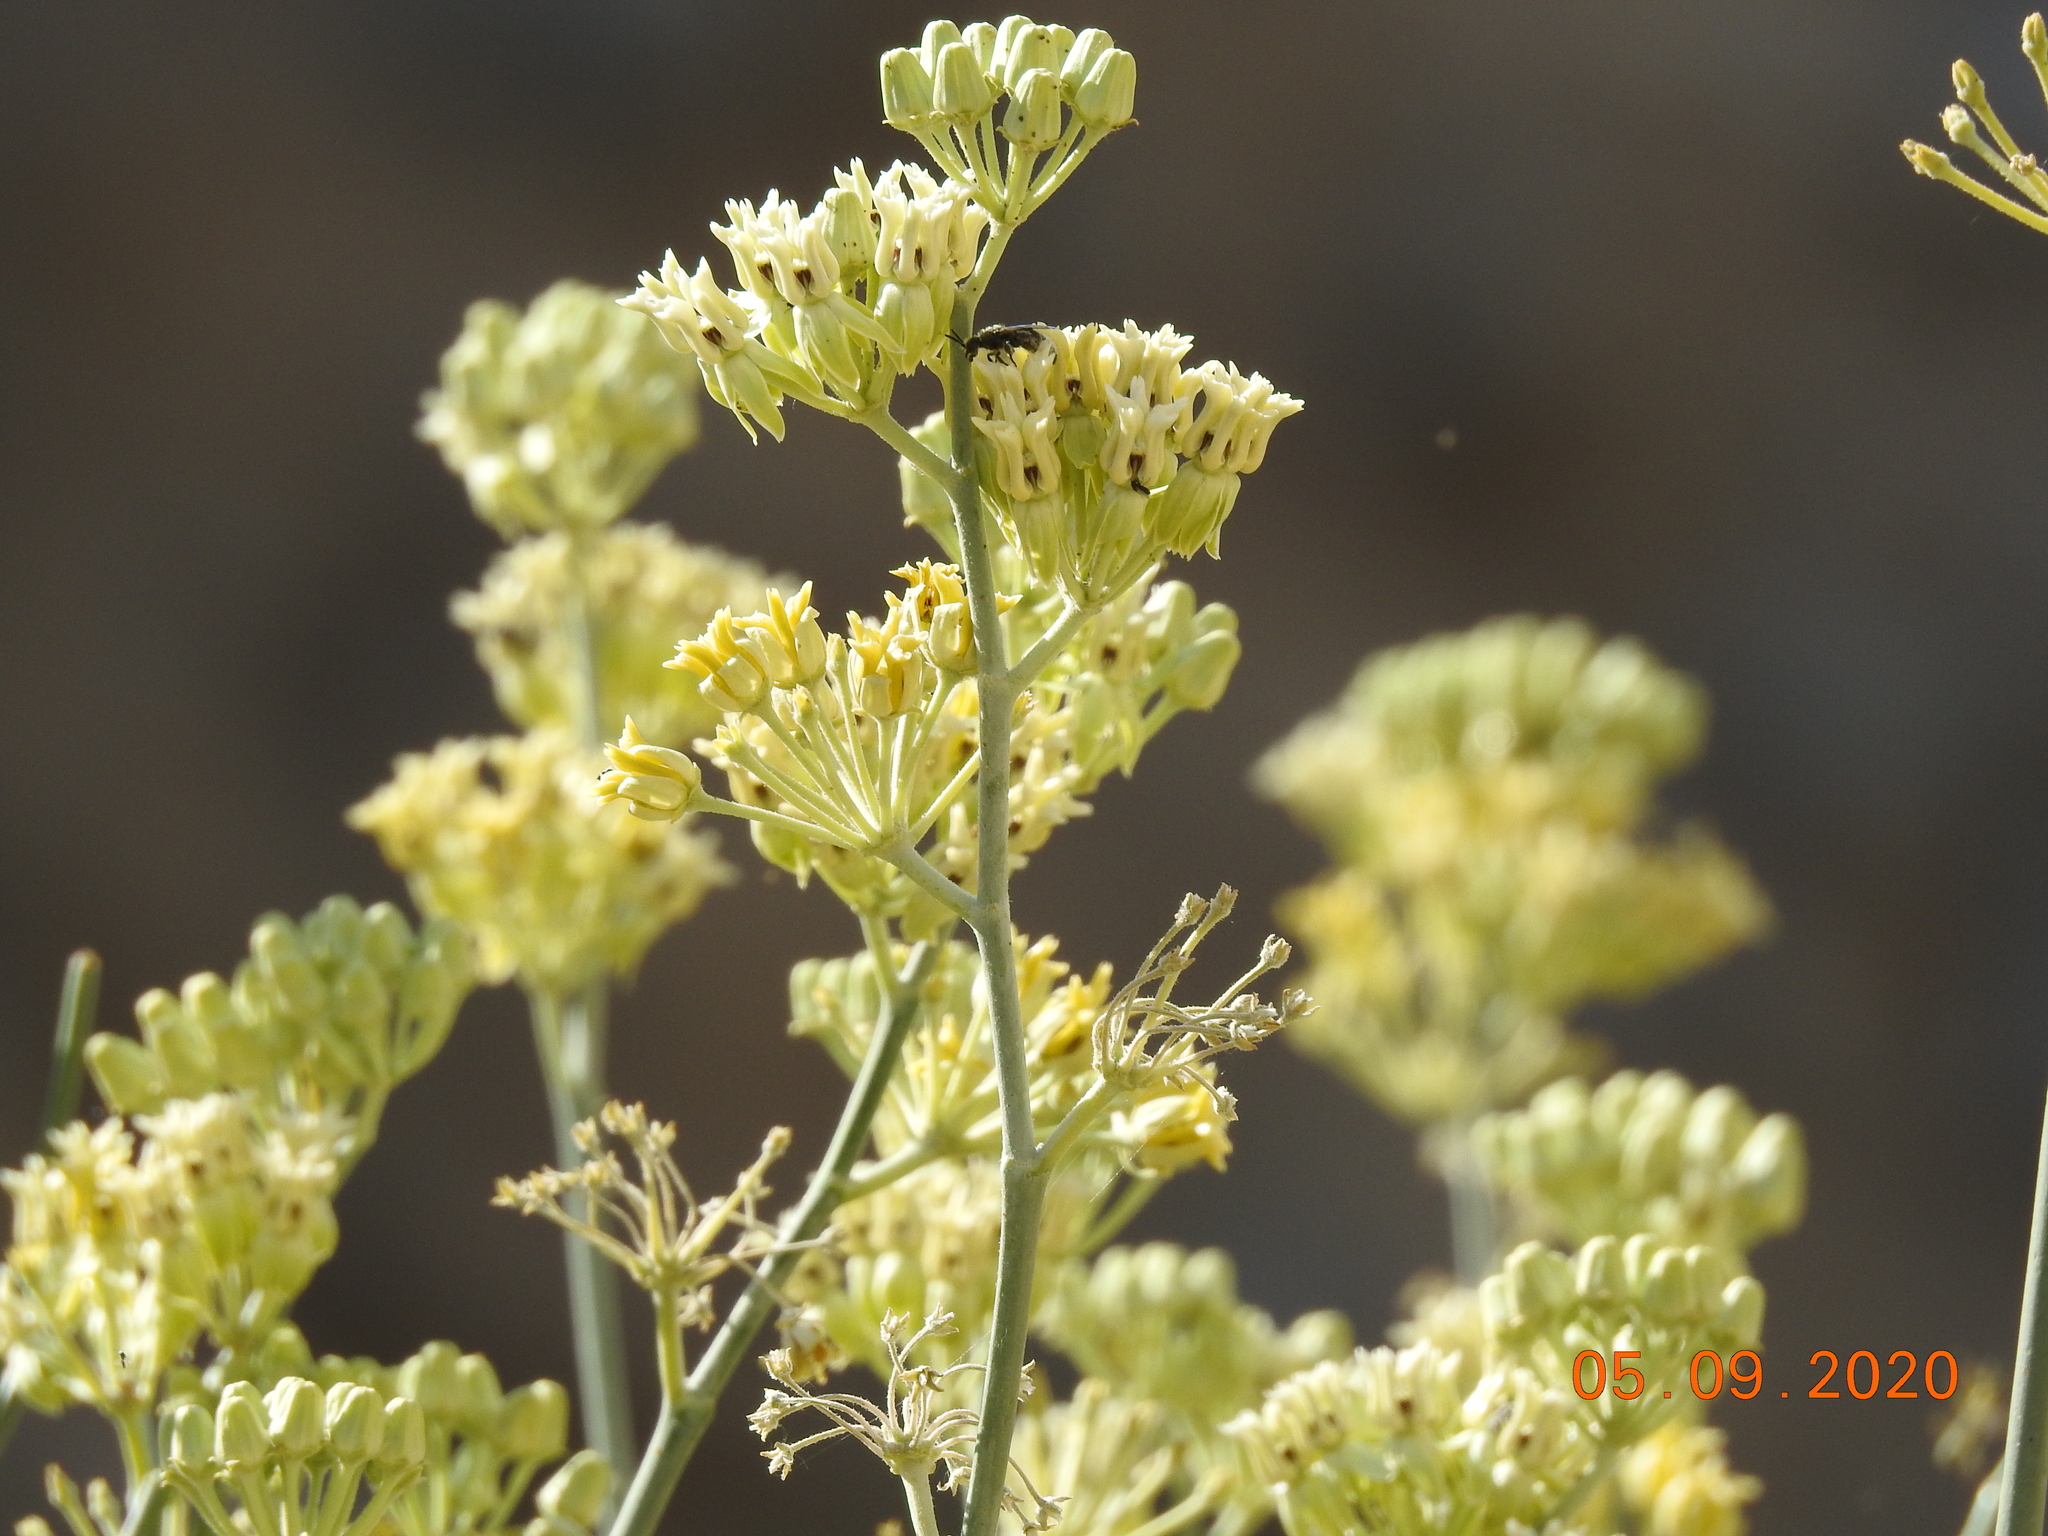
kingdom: Plantae
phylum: Tracheophyta
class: Magnoliopsida
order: Gentianales
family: Apocynaceae
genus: Asclepias
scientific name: Asclepias subulata
